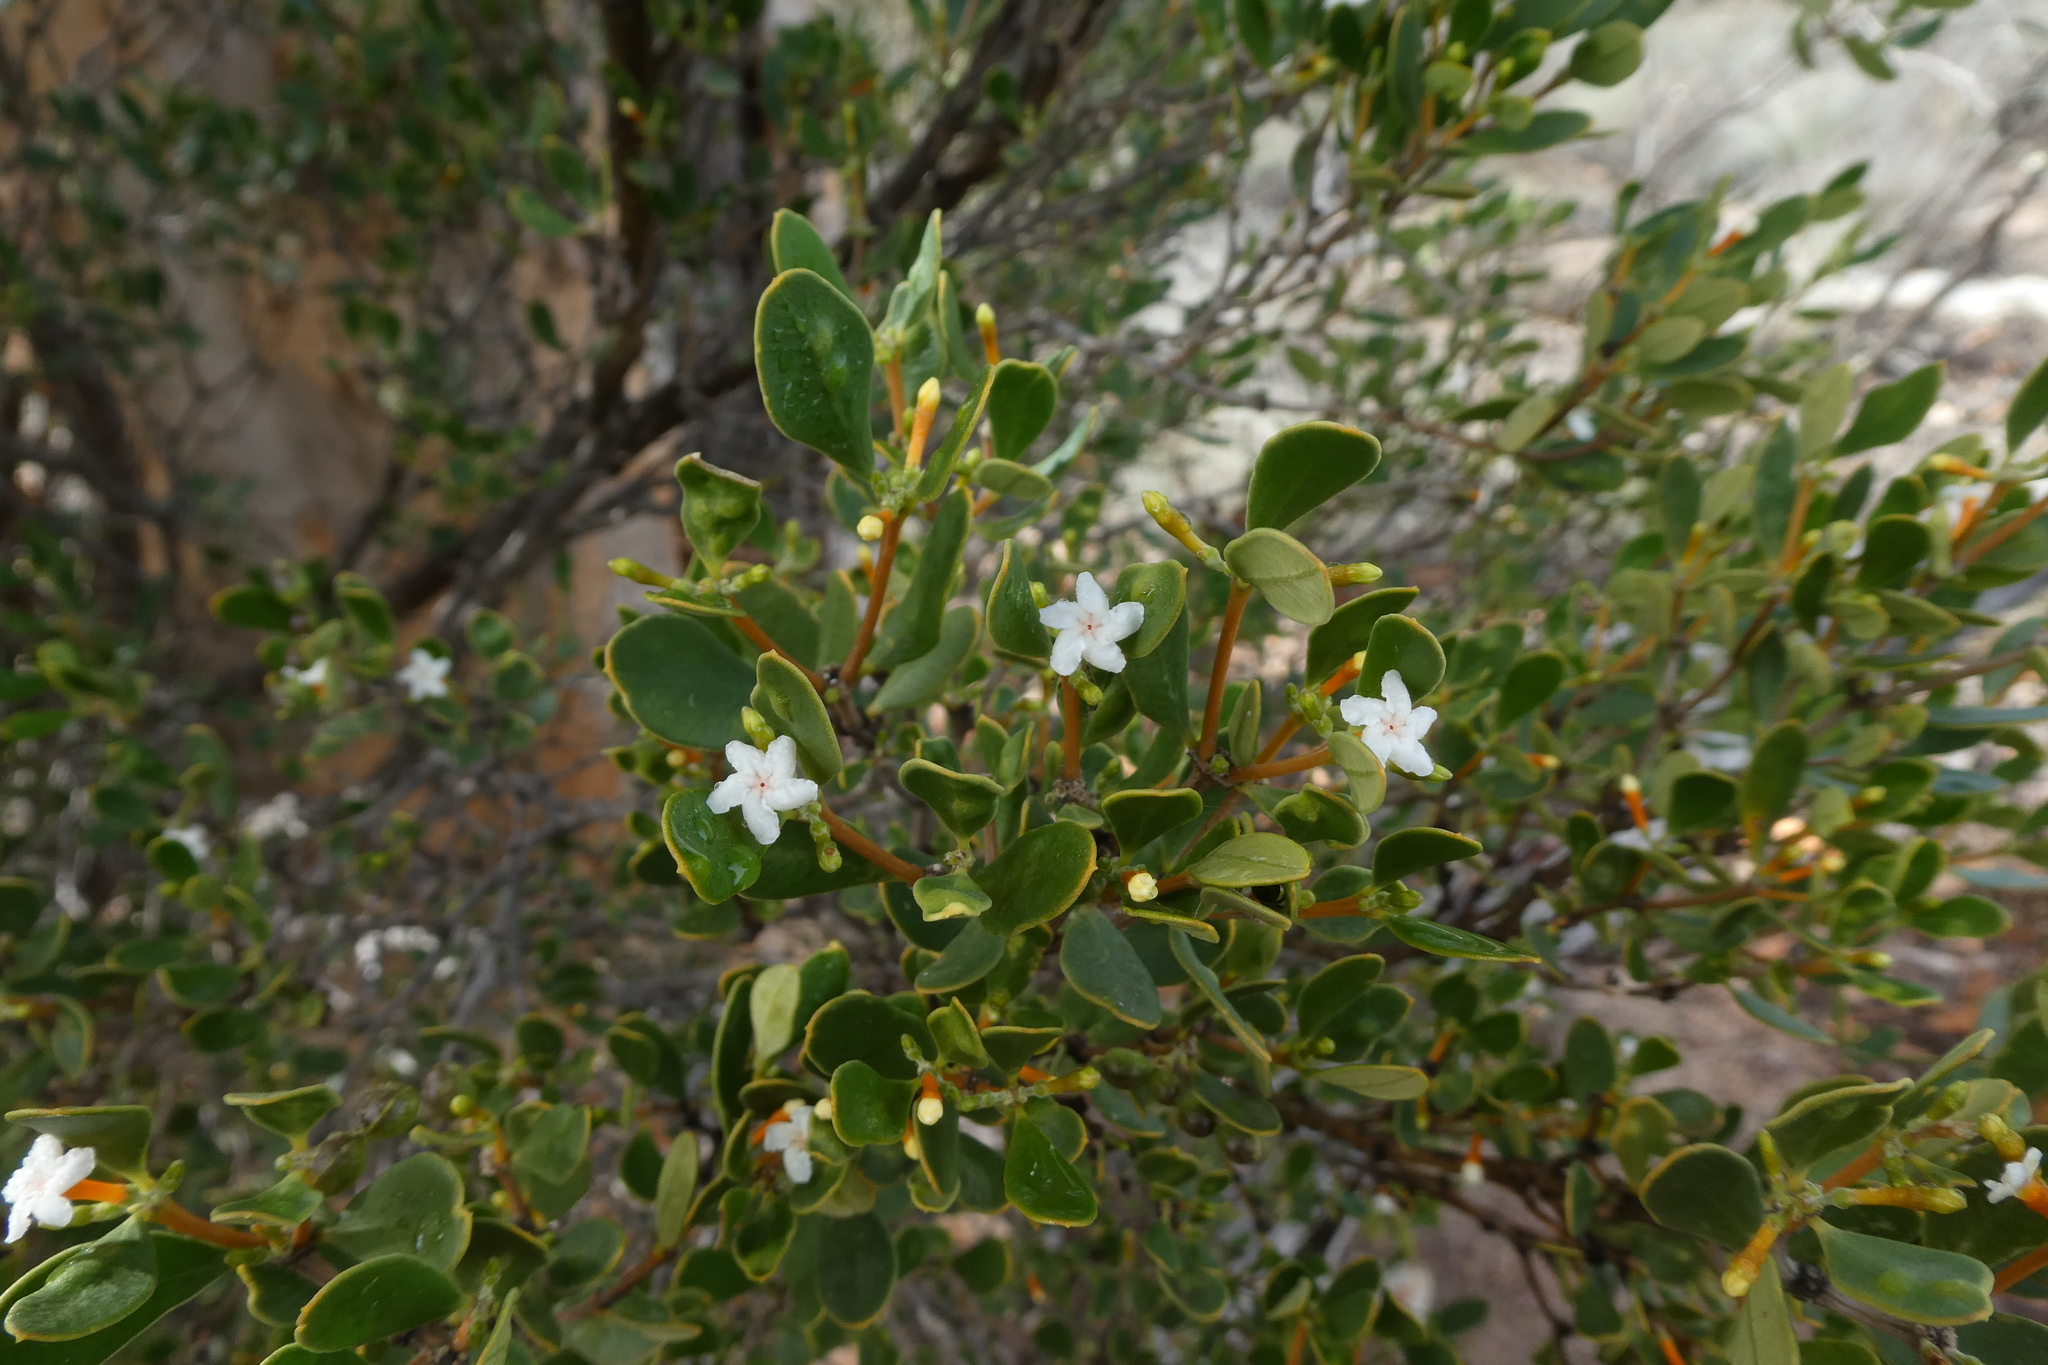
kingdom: Plantae
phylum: Tracheophyta
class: Magnoliopsida
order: Gentianales
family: Apocynaceae
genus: Alyxia
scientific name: Alyxia buxifolia
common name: Dysentery-bush
